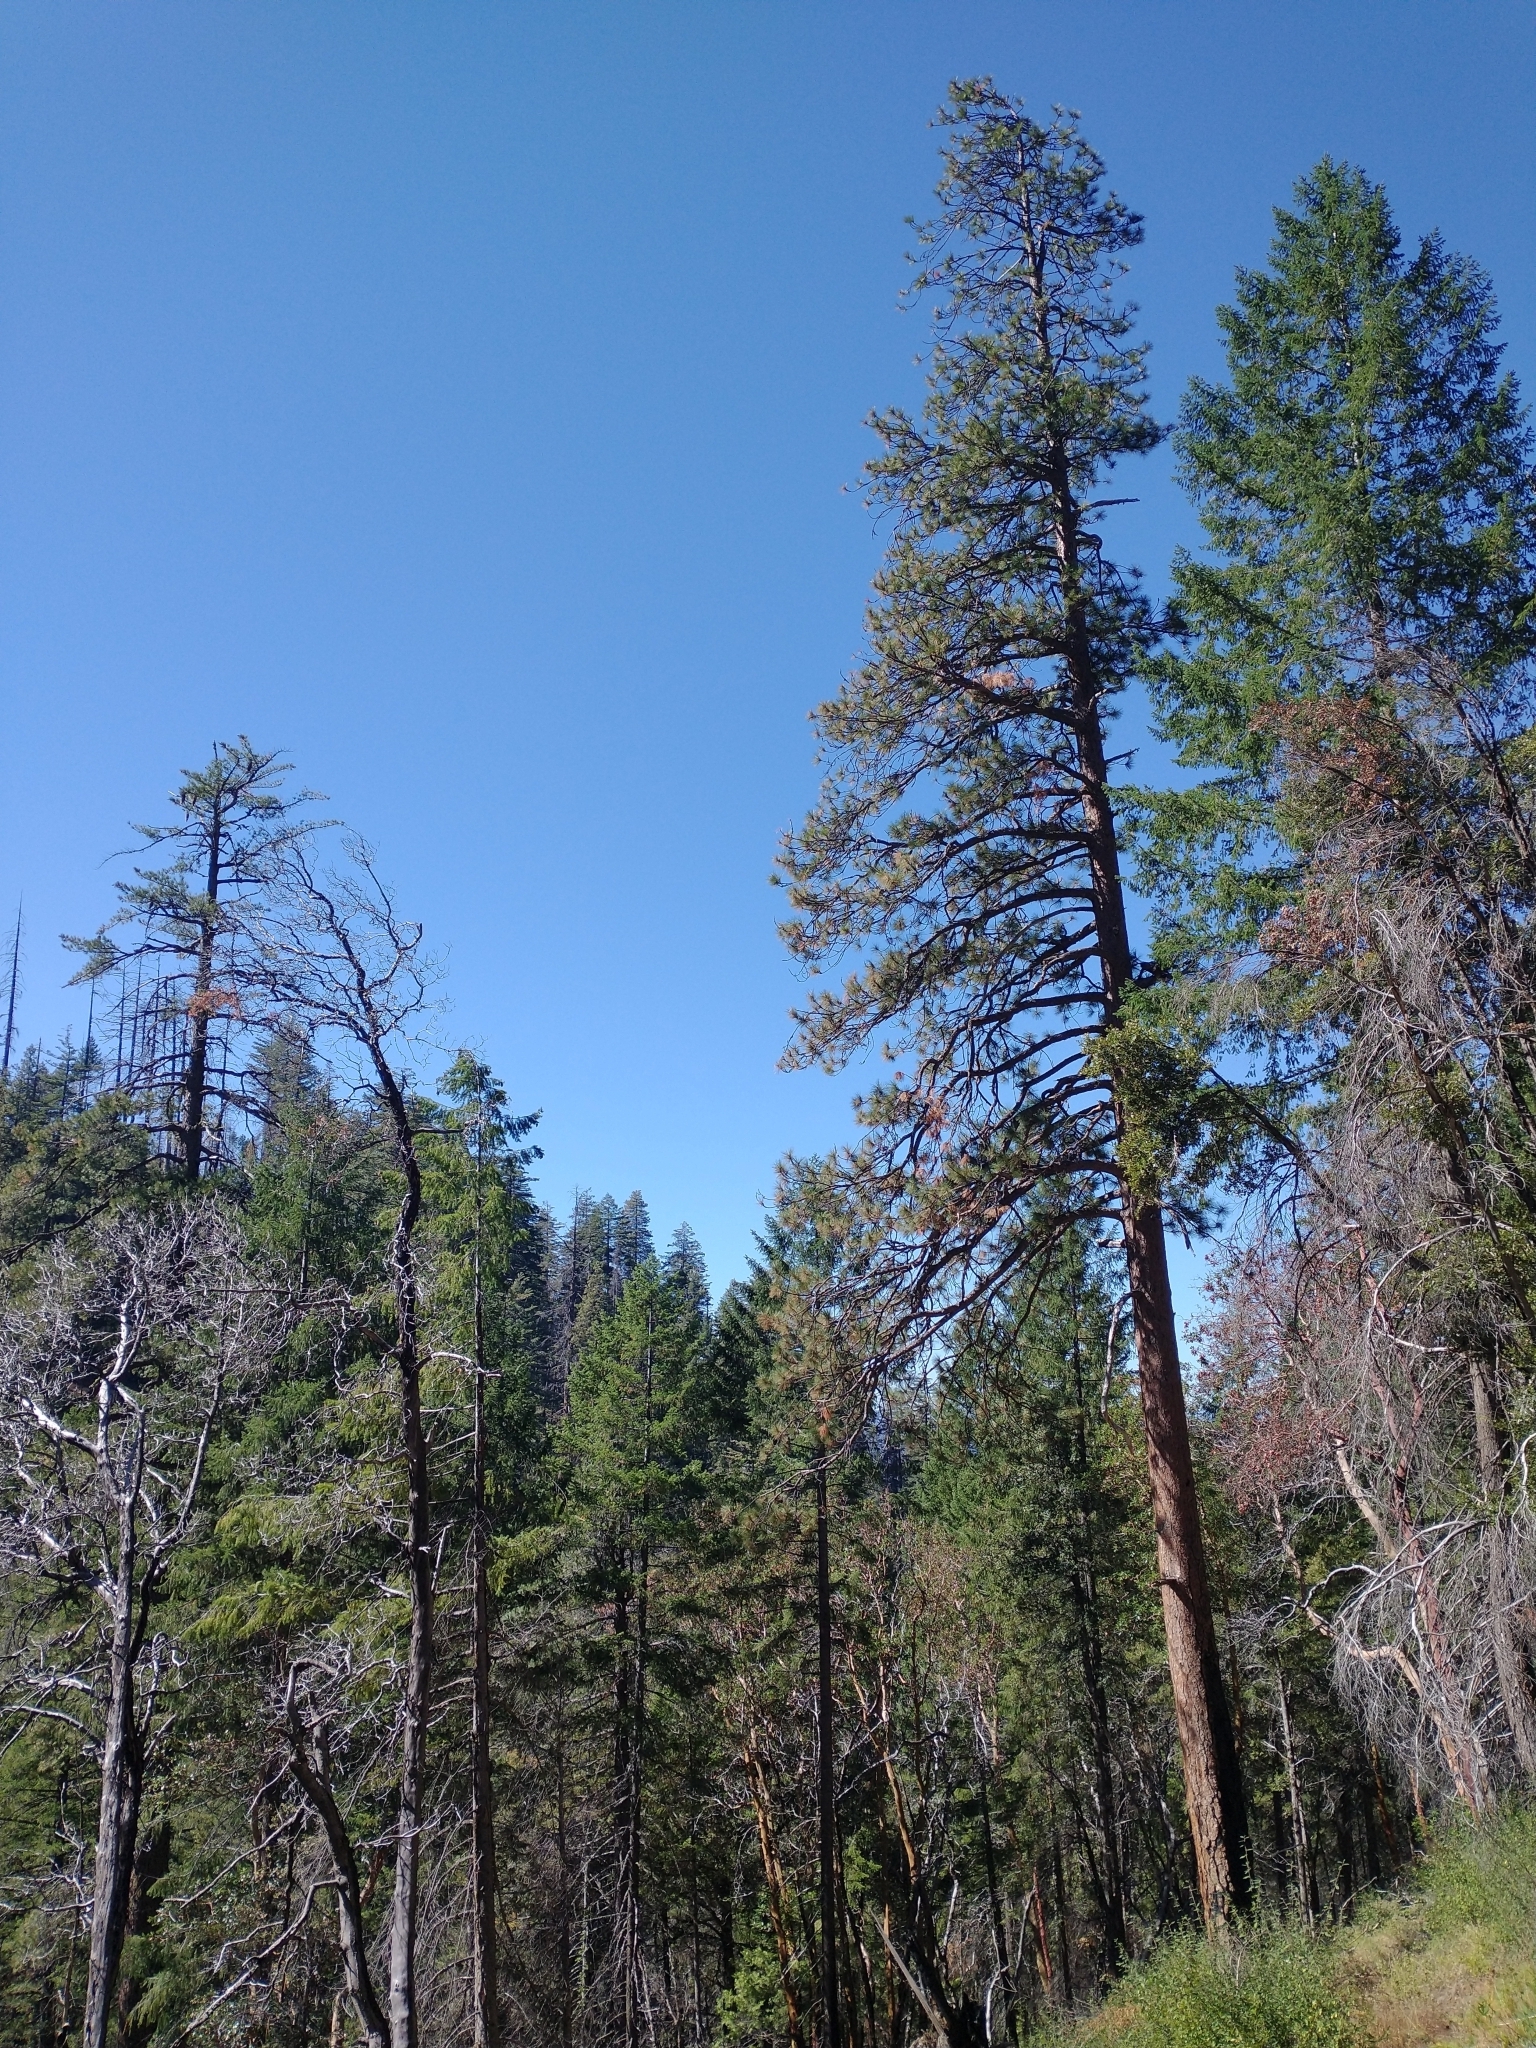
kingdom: Plantae
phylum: Tracheophyta
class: Pinopsida
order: Pinales
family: Pinaceae
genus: Pseudotsuga
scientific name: Pseudotsuga menziesii
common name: Douglas fir
